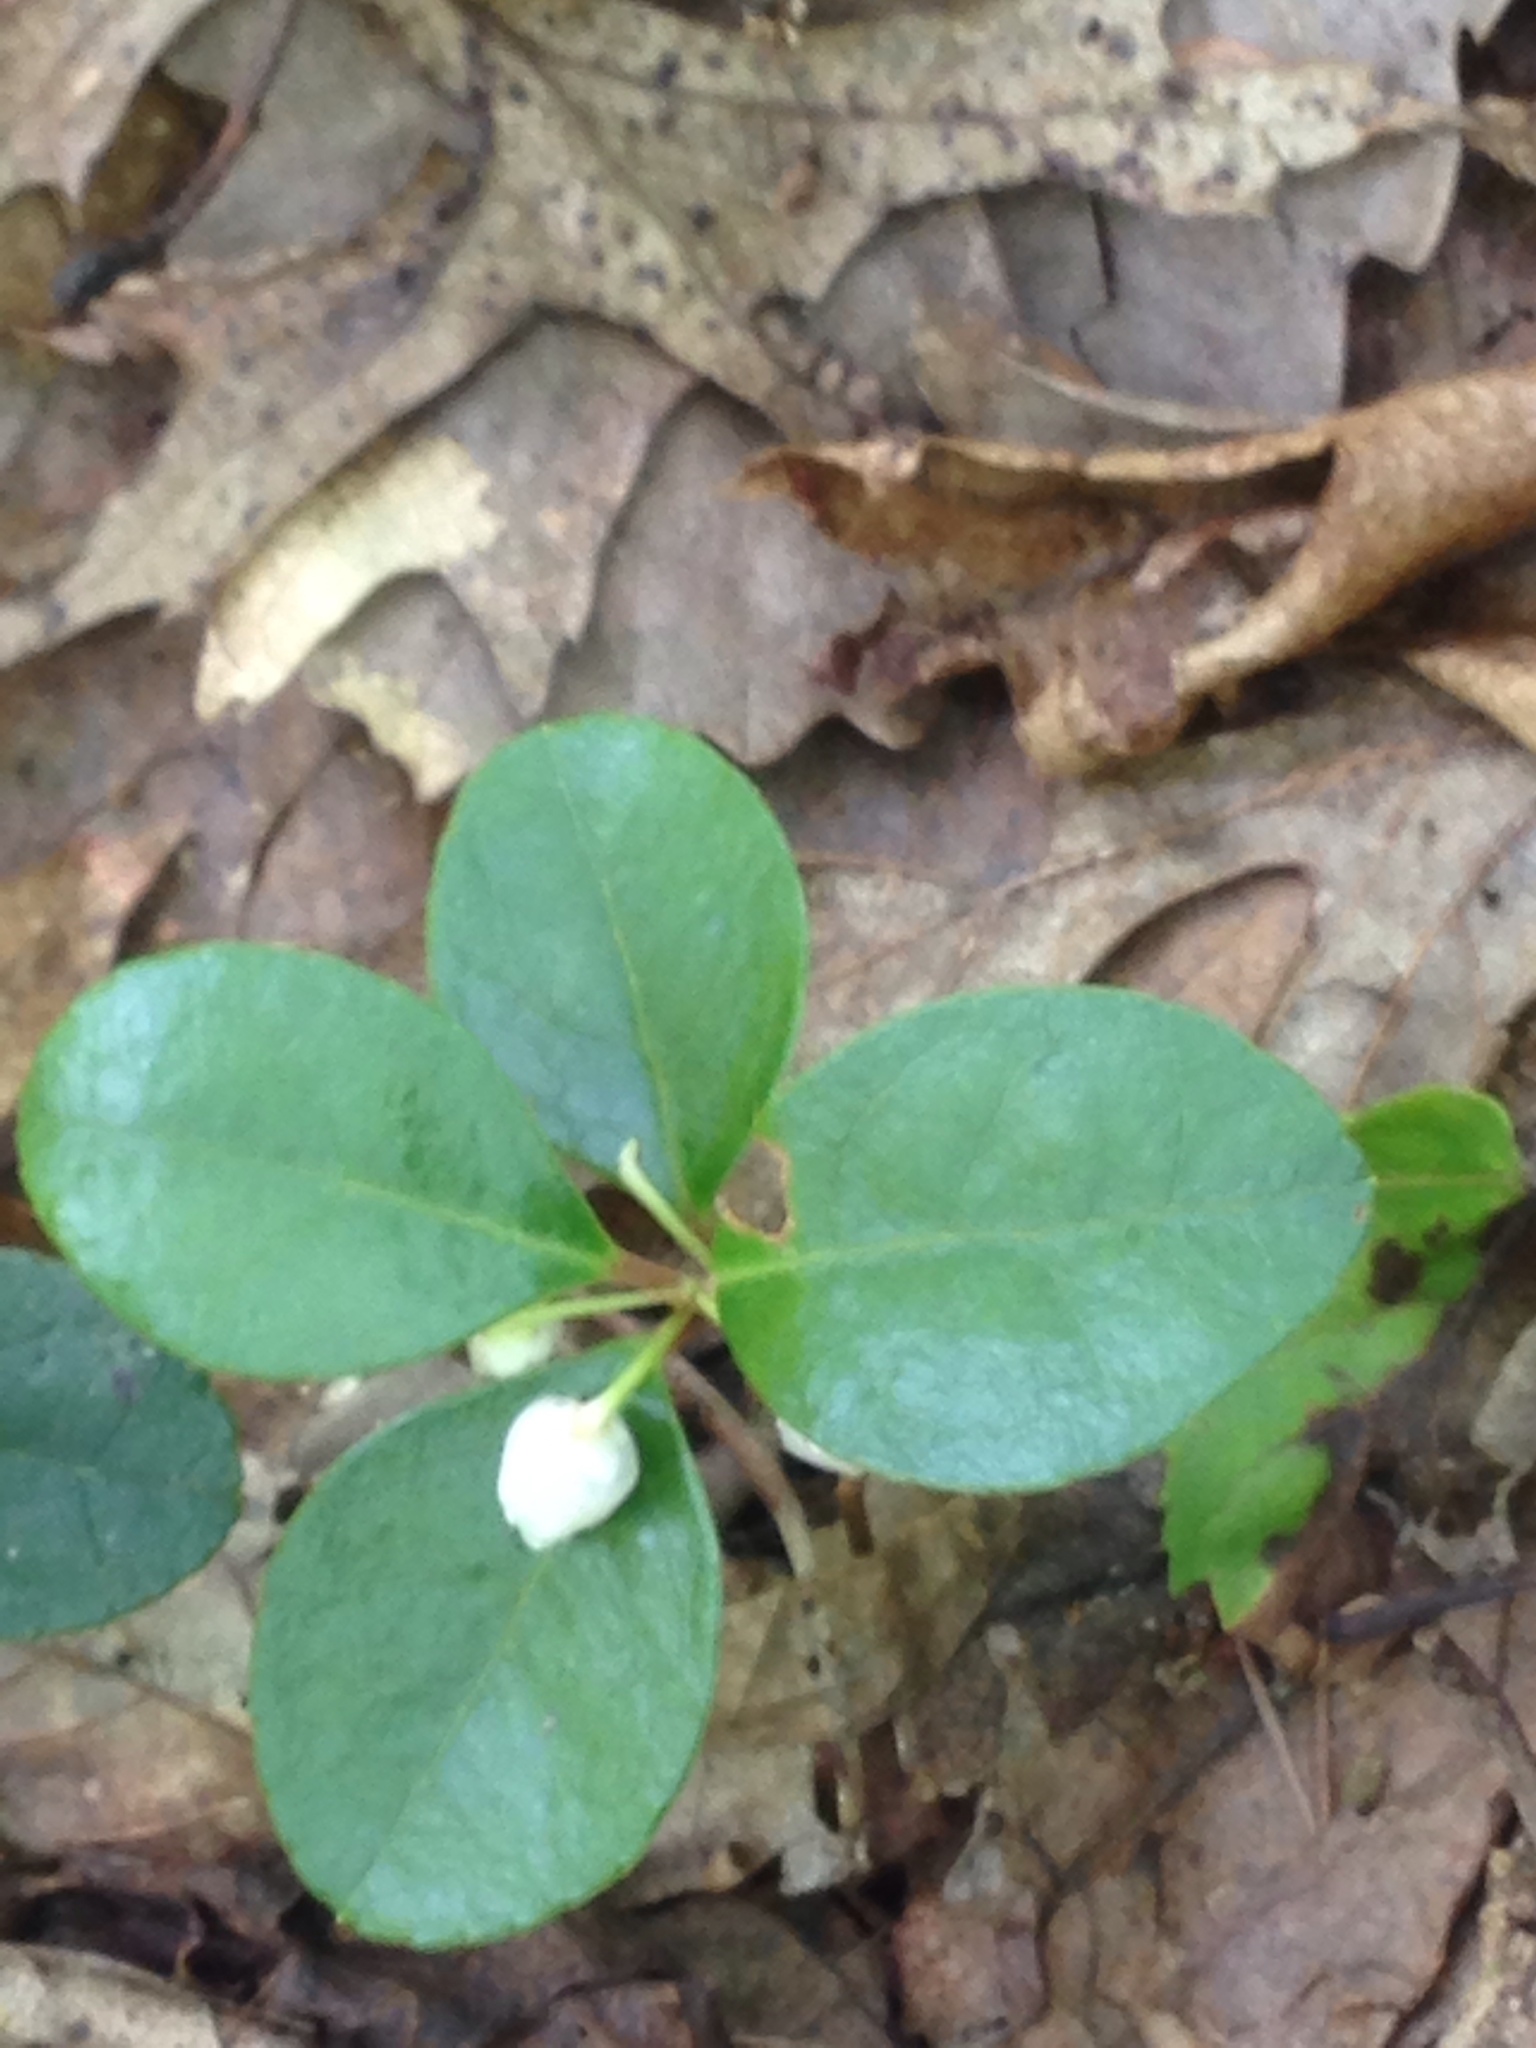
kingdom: Plantae
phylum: Tracheophyta
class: Magnoliopsida
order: Ericales
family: Ericaceae
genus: Gaultheria
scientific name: Gaultheria procumbens
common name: Checkerberry
